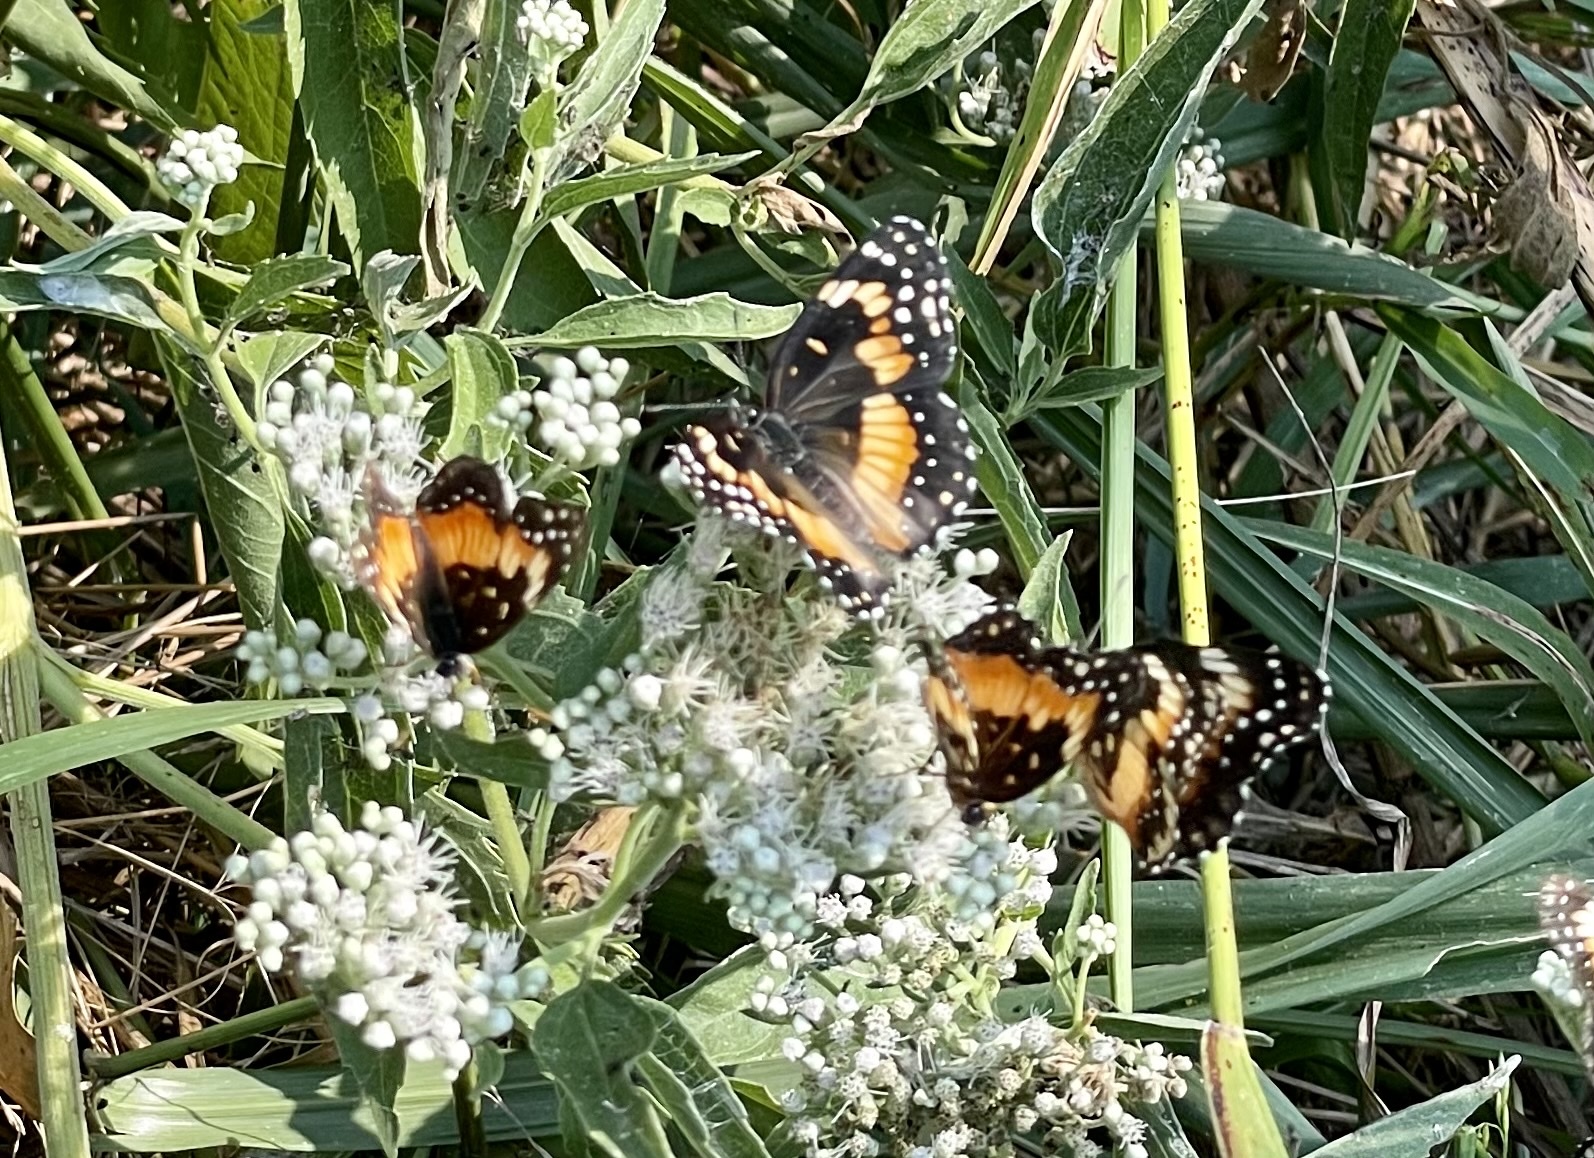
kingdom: Animalia
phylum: Arthropoda
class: Insecta
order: Lepidoptera
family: Nymphalidae
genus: Chlosyne
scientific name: Chlosyne lacinia
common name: Bordered patch
